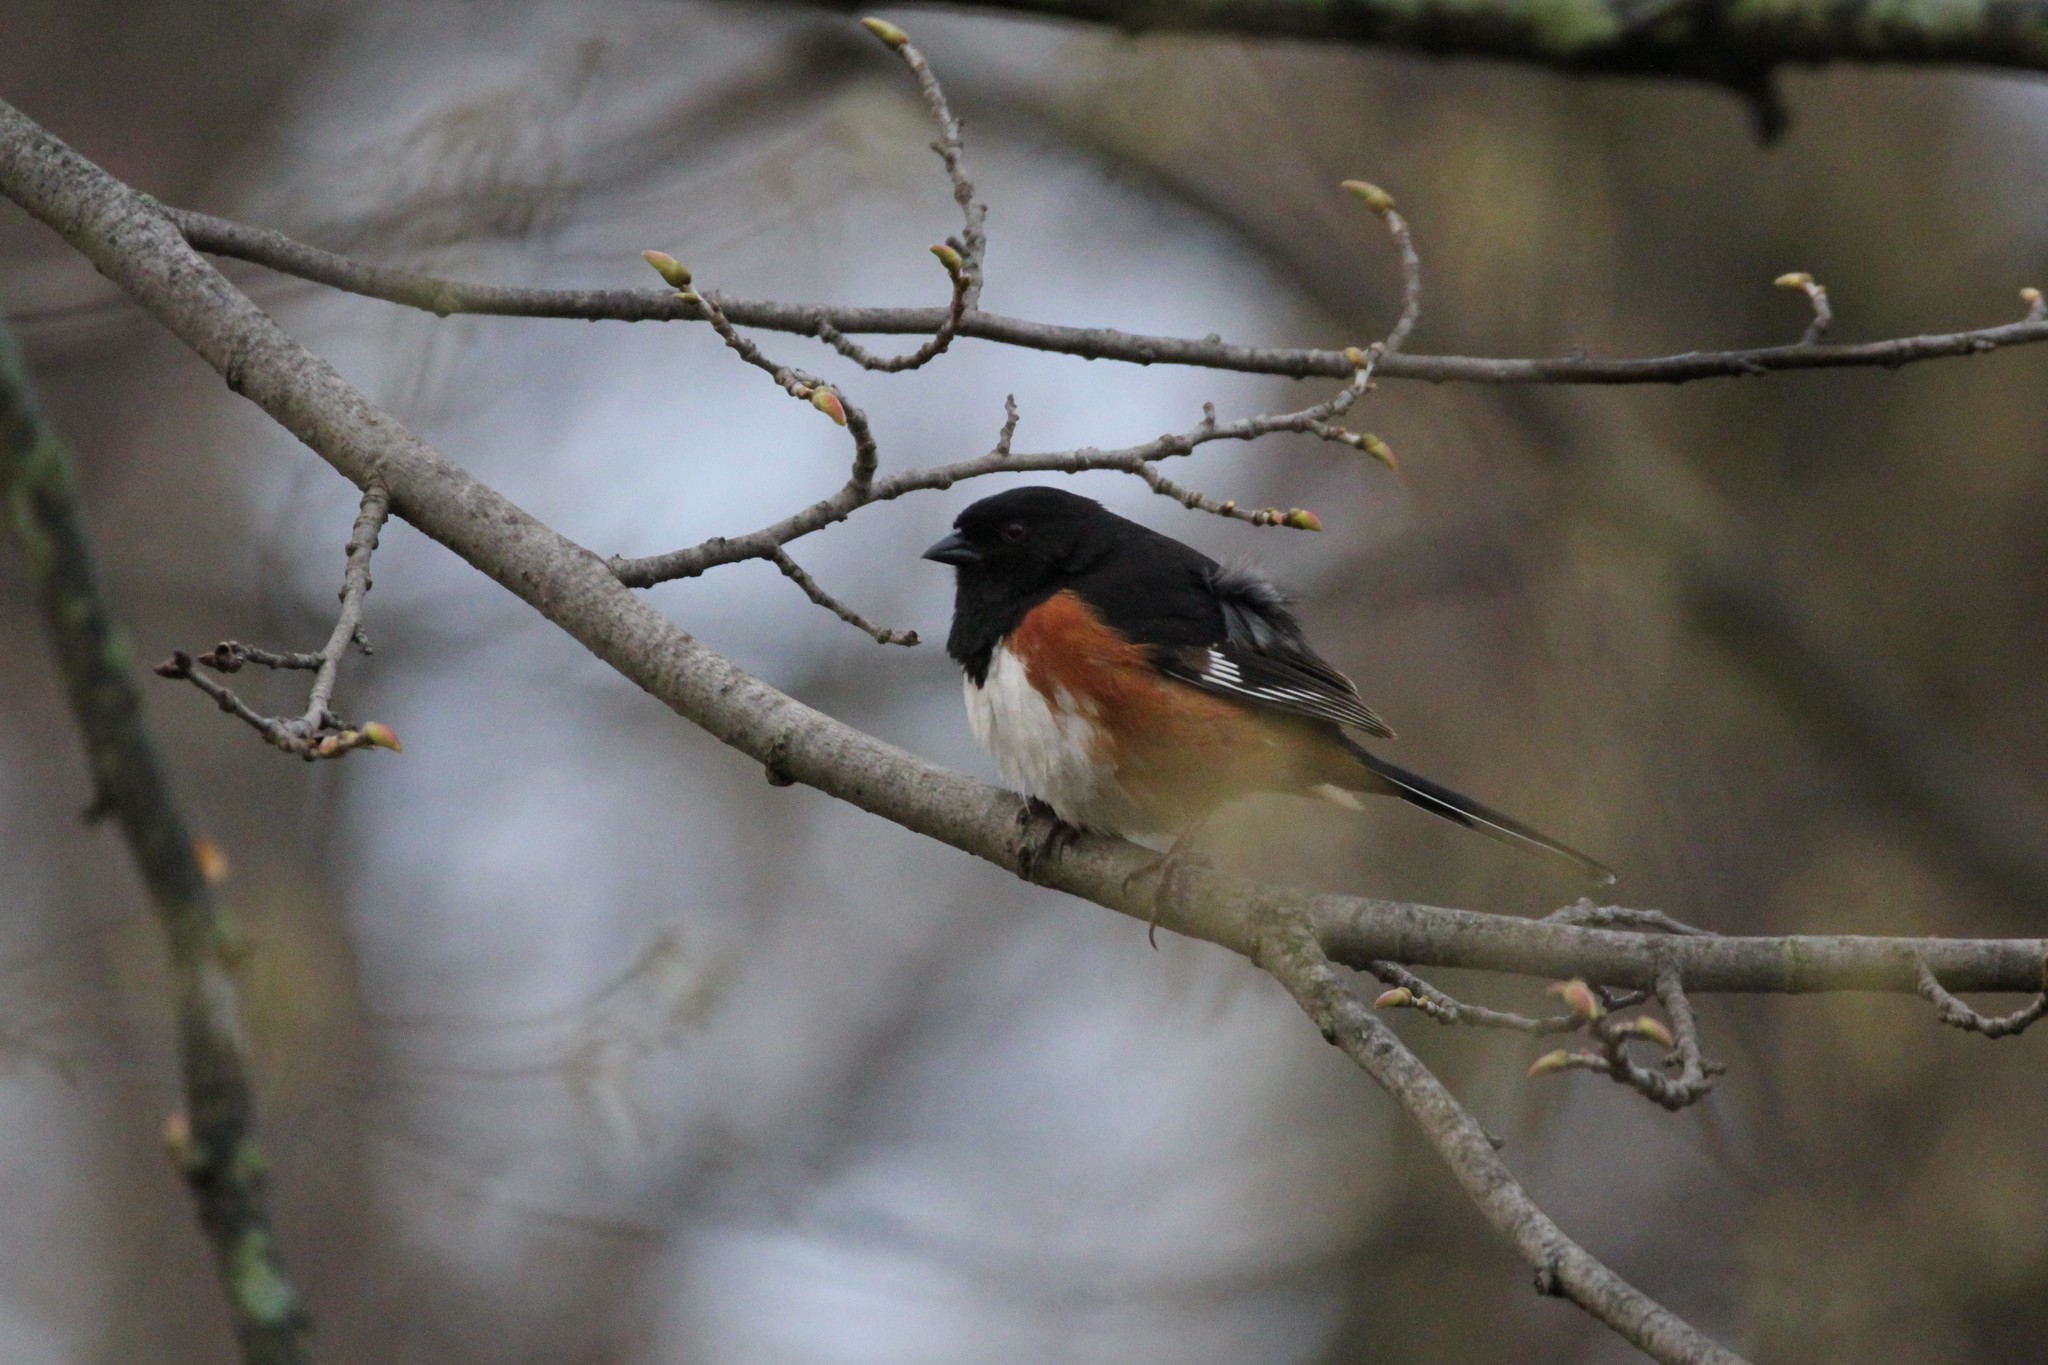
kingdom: Animalia
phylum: Chordata
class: Aves
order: Passeriformes
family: Passerellidae
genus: Pipilo
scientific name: Pipilo erythrophthalmus
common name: Eastern towhee
